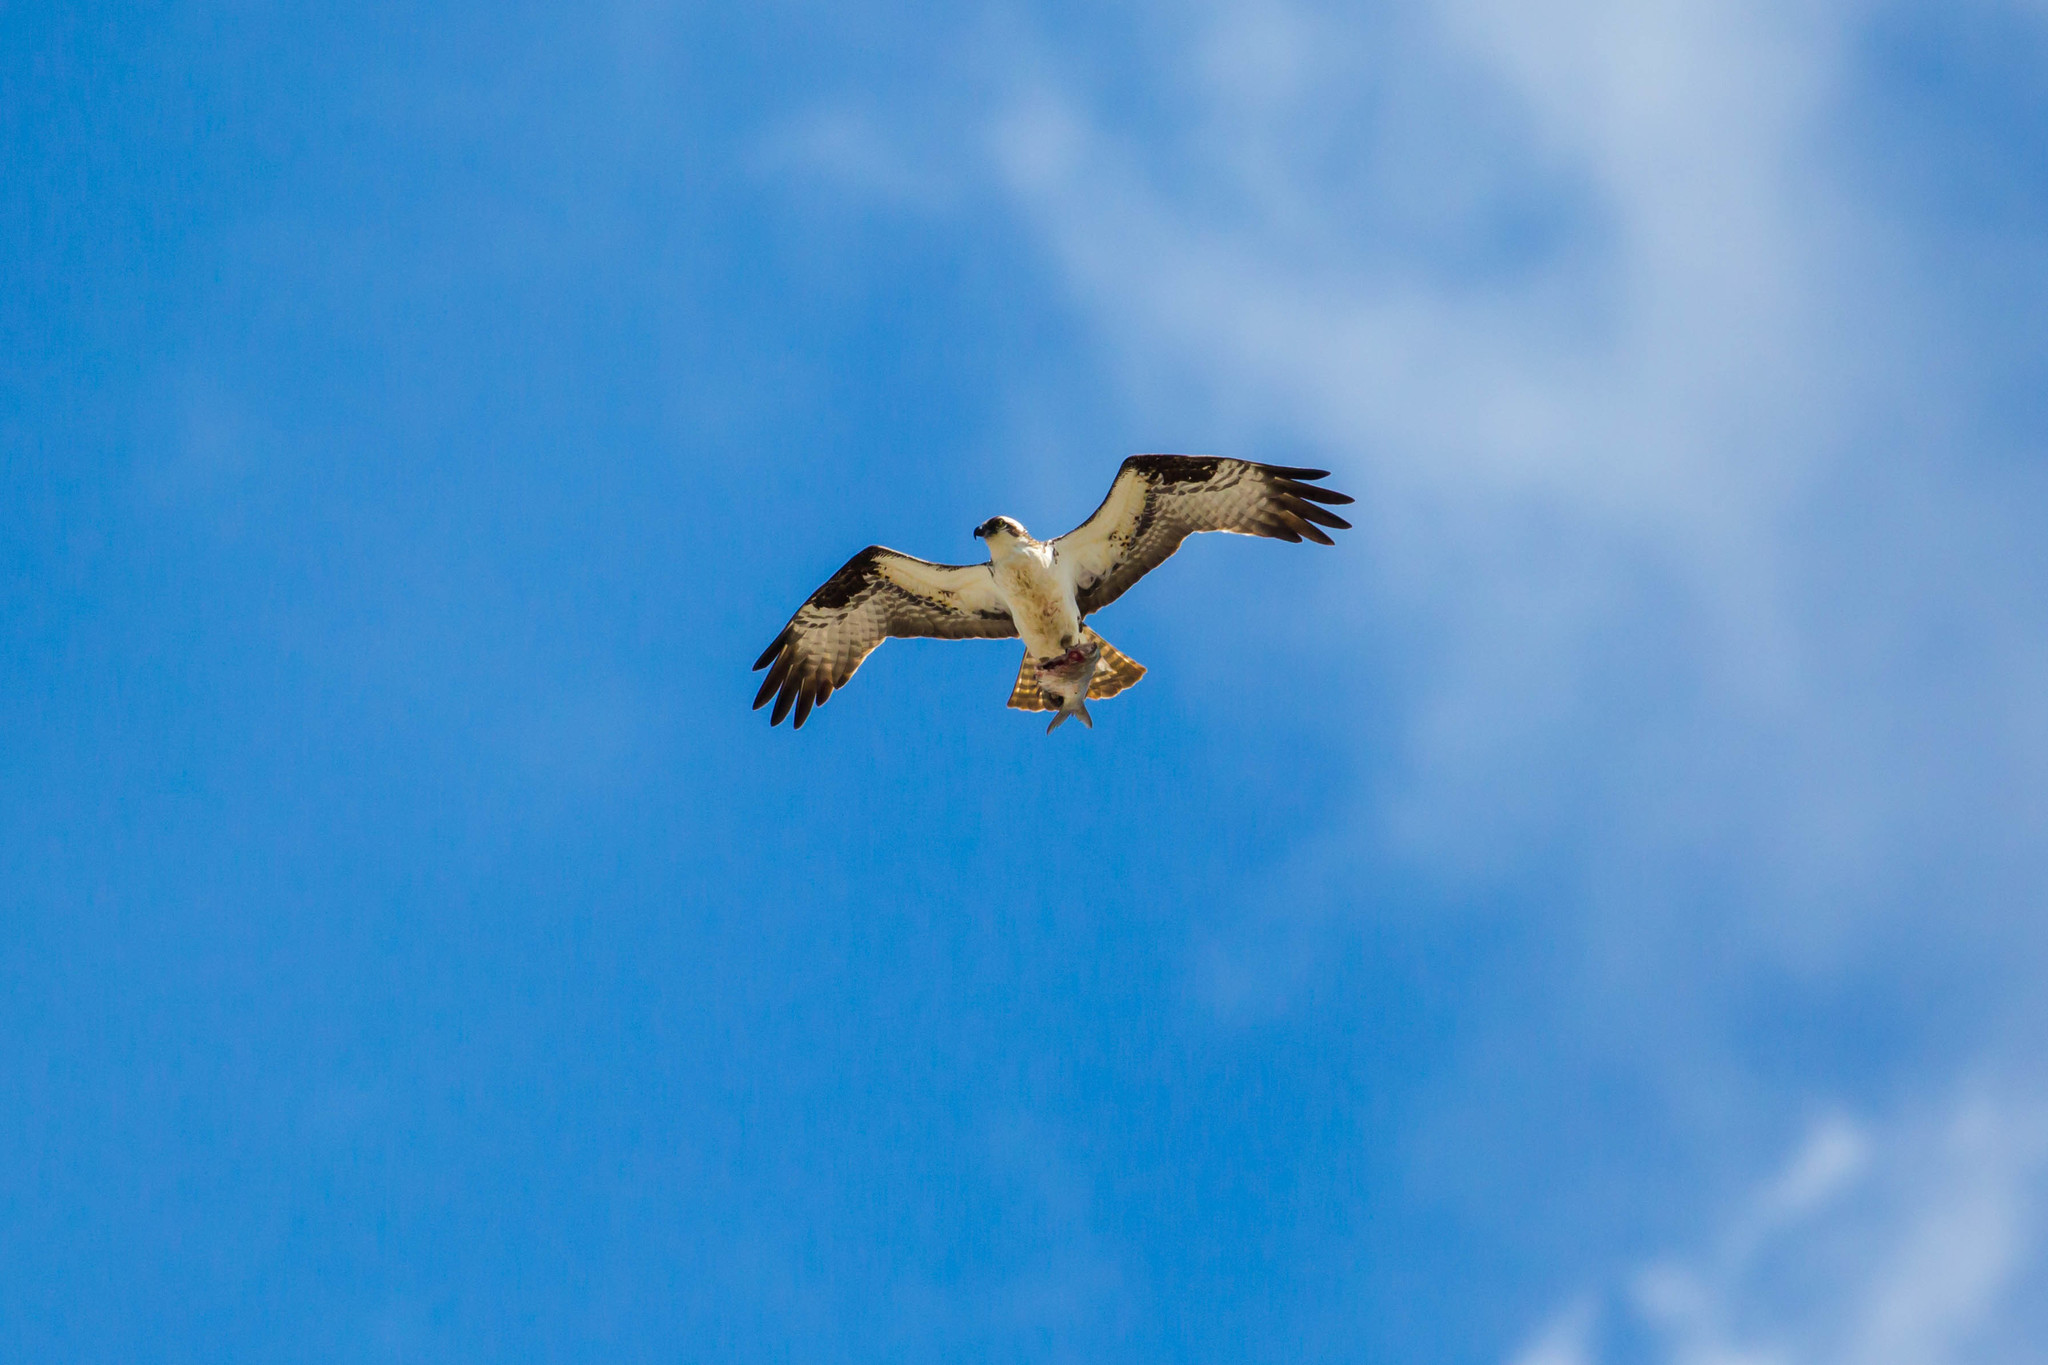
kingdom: Animalia
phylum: Chordata
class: Aves
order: Accipitriformes
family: Pandionidae
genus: Pandion
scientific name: Pandion haliaetus
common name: Osprey
